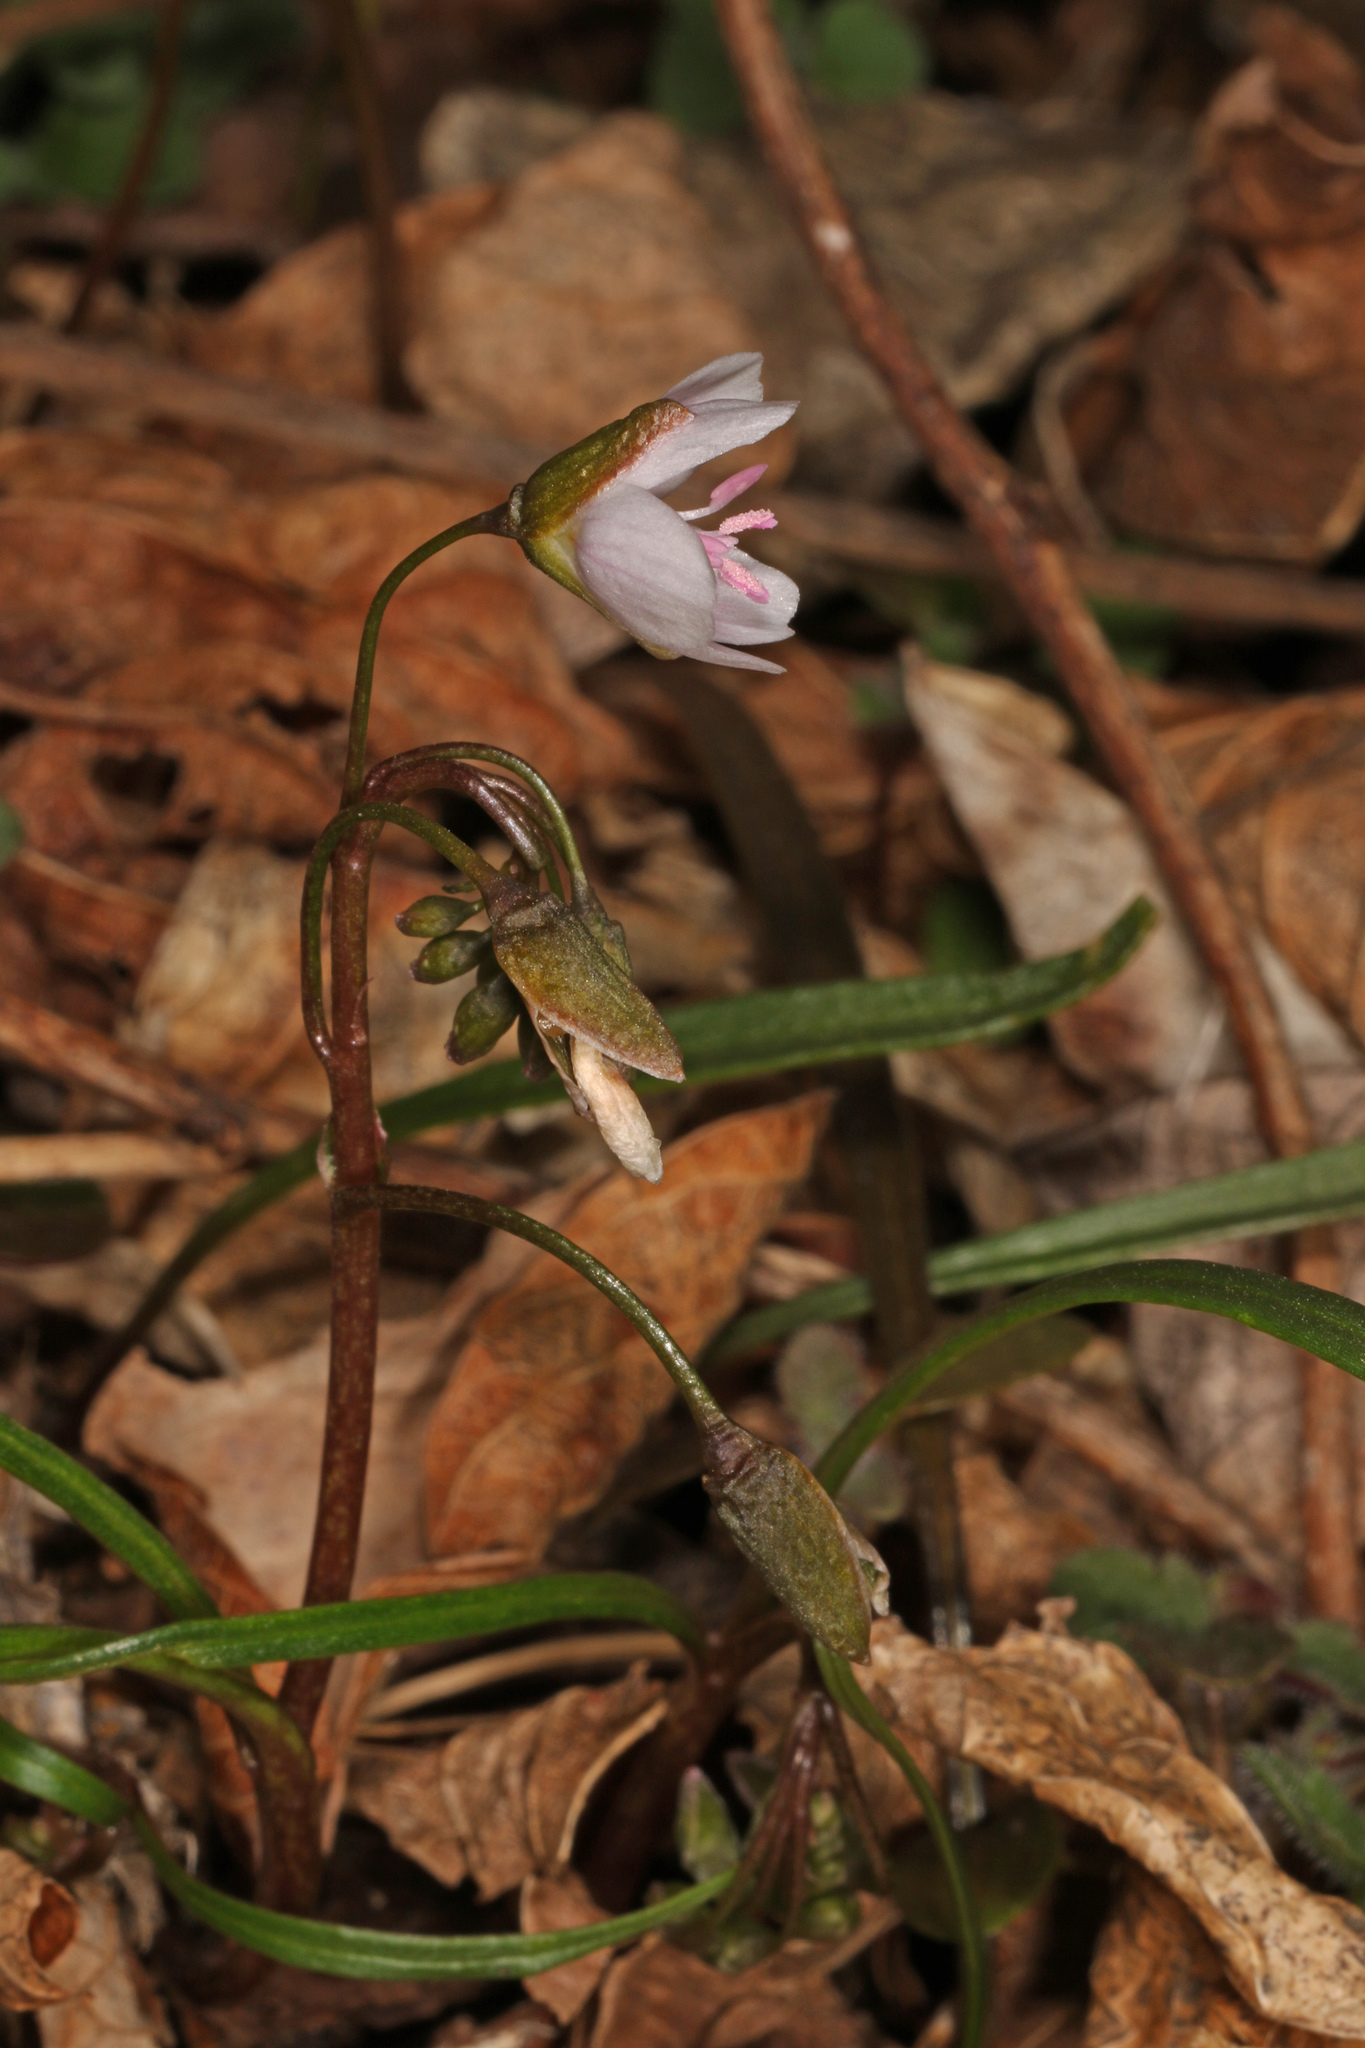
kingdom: Plantae
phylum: Tracheophyta
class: Magnoliopsida
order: Caryophyllales
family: Montiaceae
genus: Claytonia
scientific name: Claytonia virginica
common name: Virginia springbeauty
